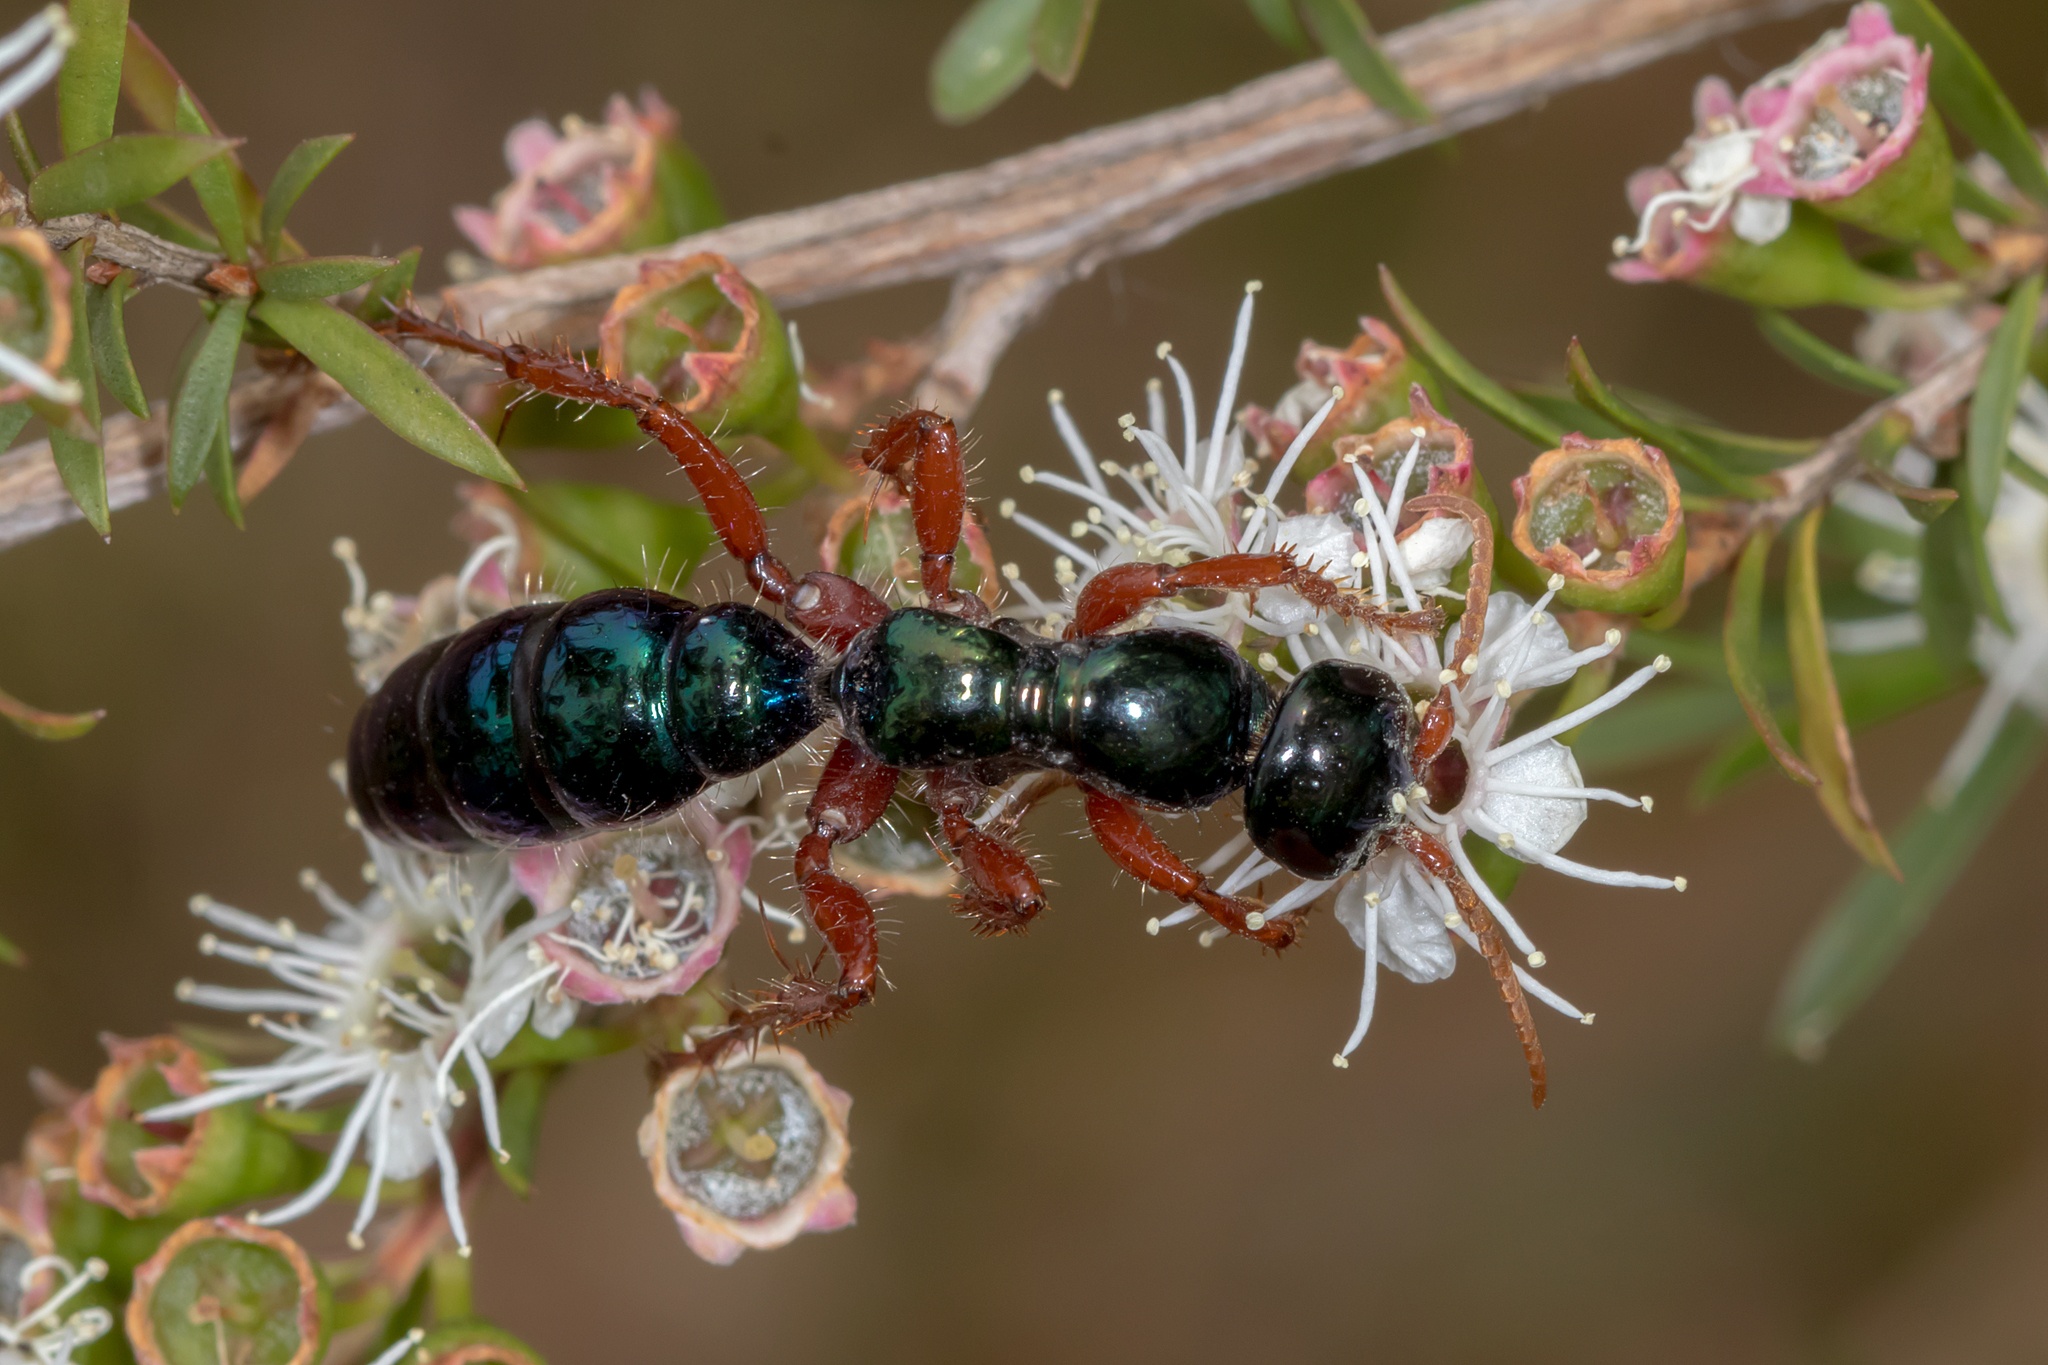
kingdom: Animalia
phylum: Arthropoda
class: Insecta
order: Hymenoptera
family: Tiphiidae
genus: Diamma
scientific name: Diamma
